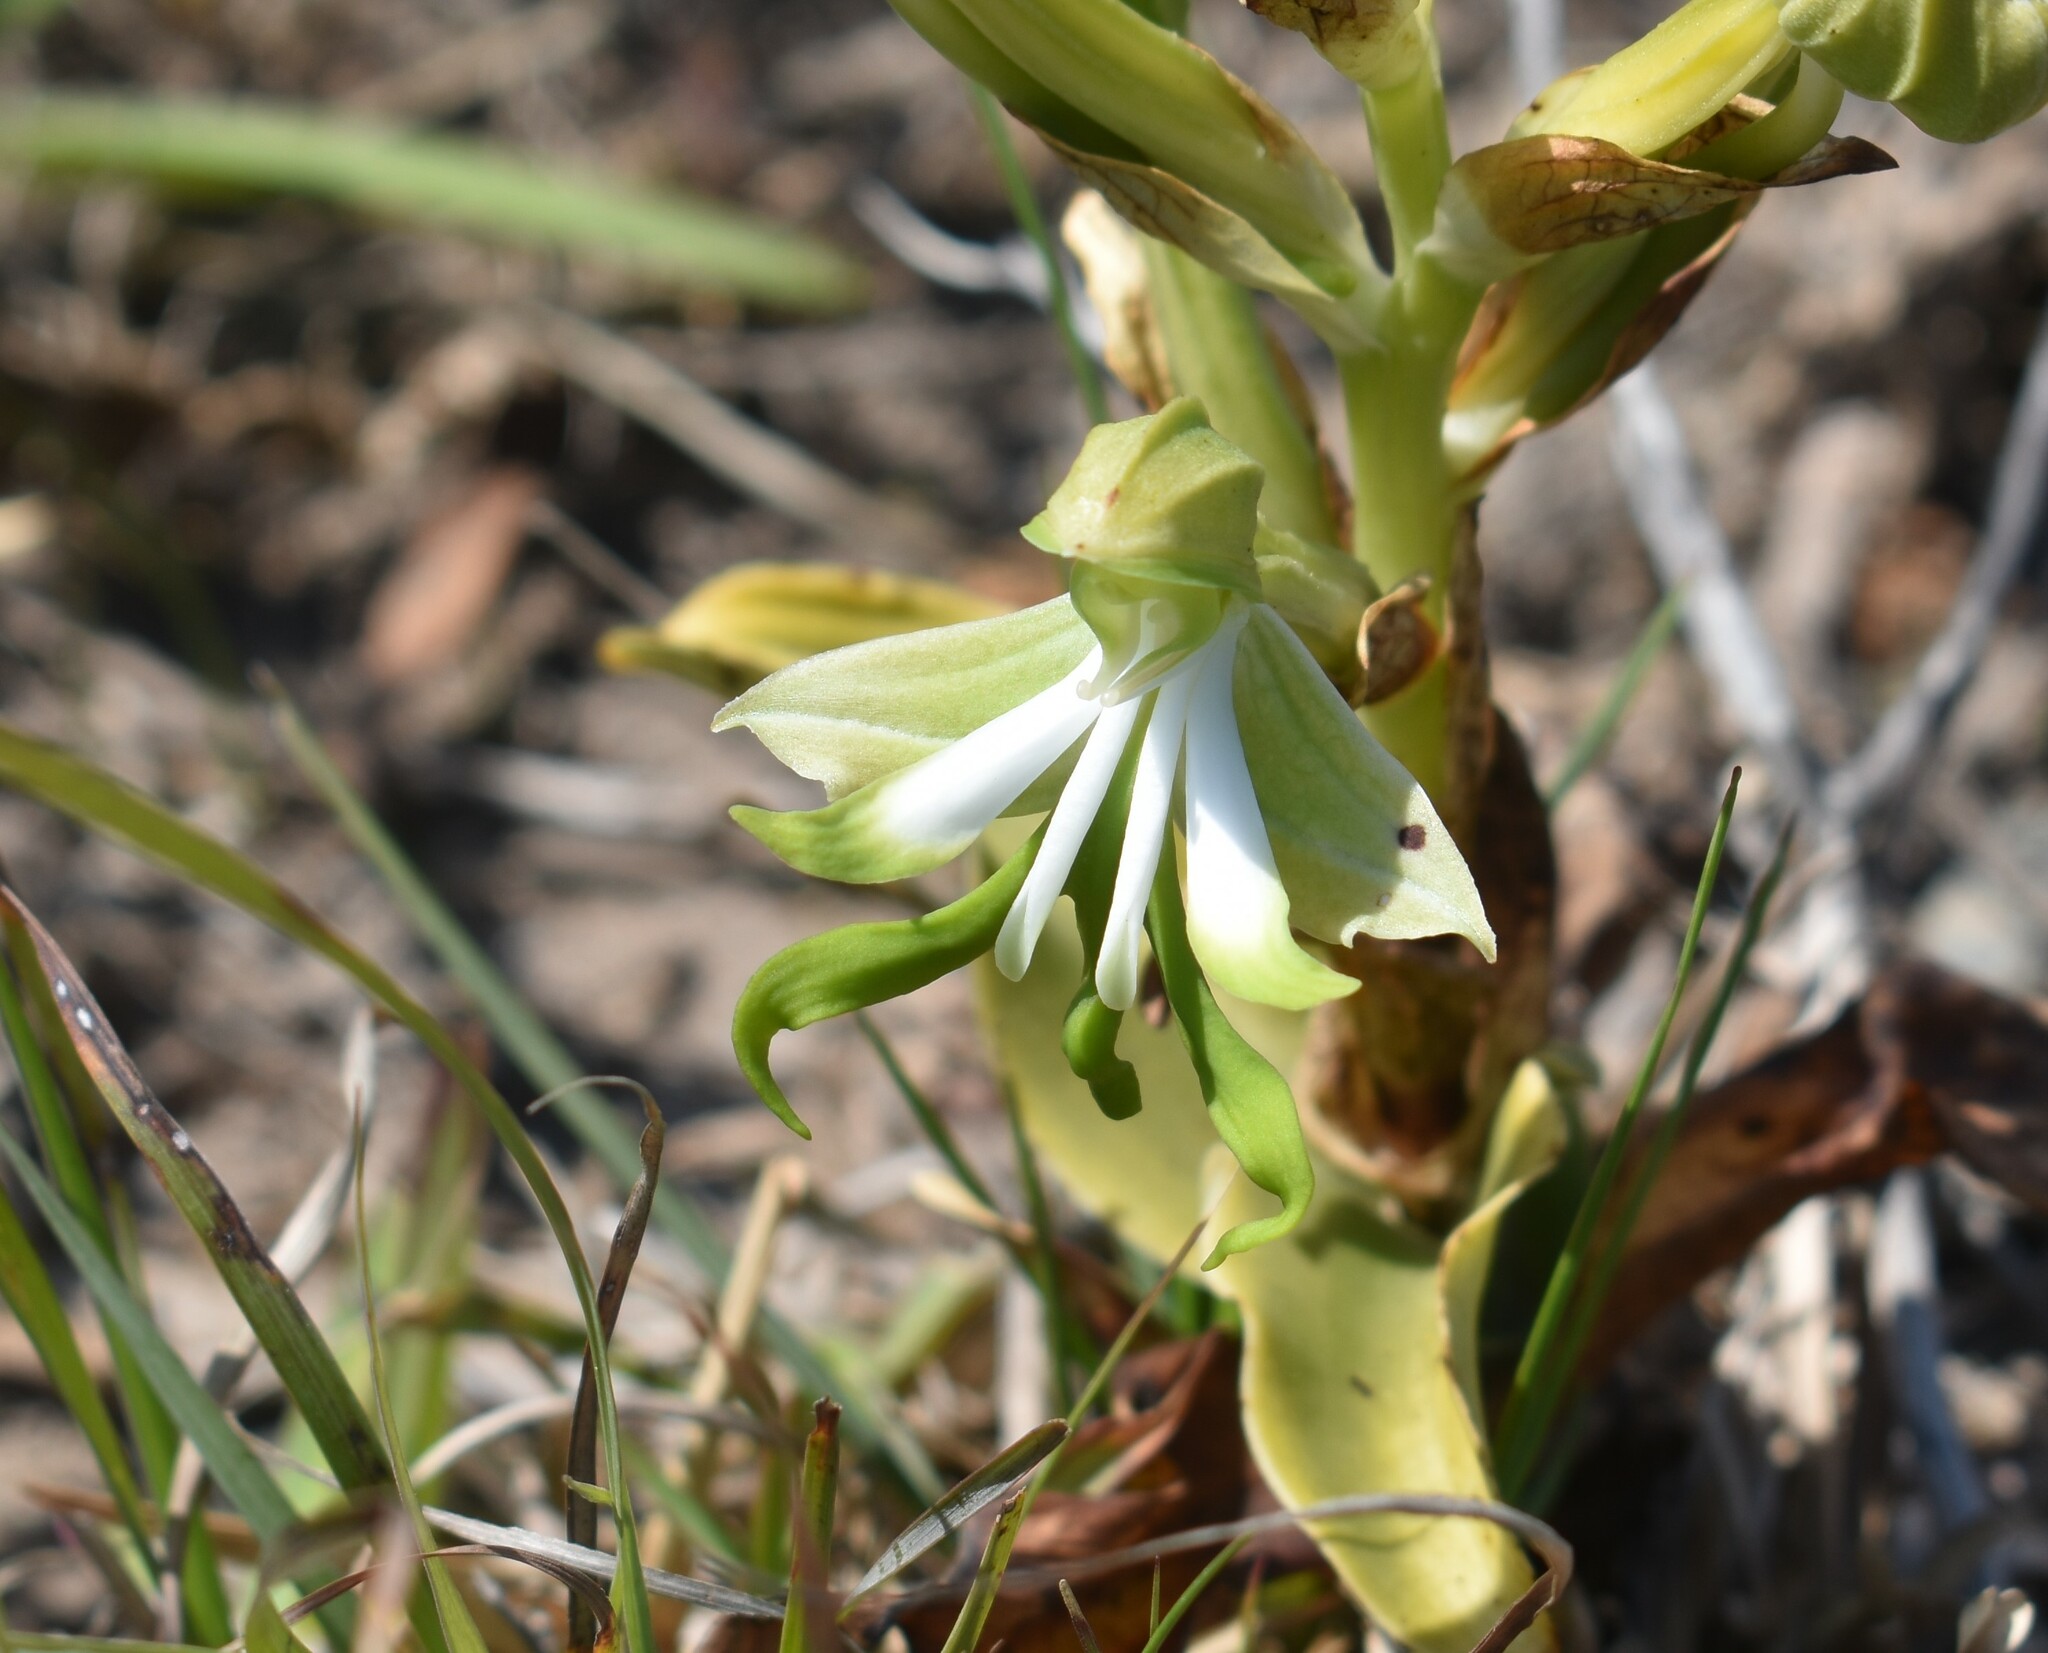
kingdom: Plantae
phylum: Tracheophyta
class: Liliopsida
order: Asparagales
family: Orchidaceae
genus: Bonatea
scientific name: Bonatea speciosa
